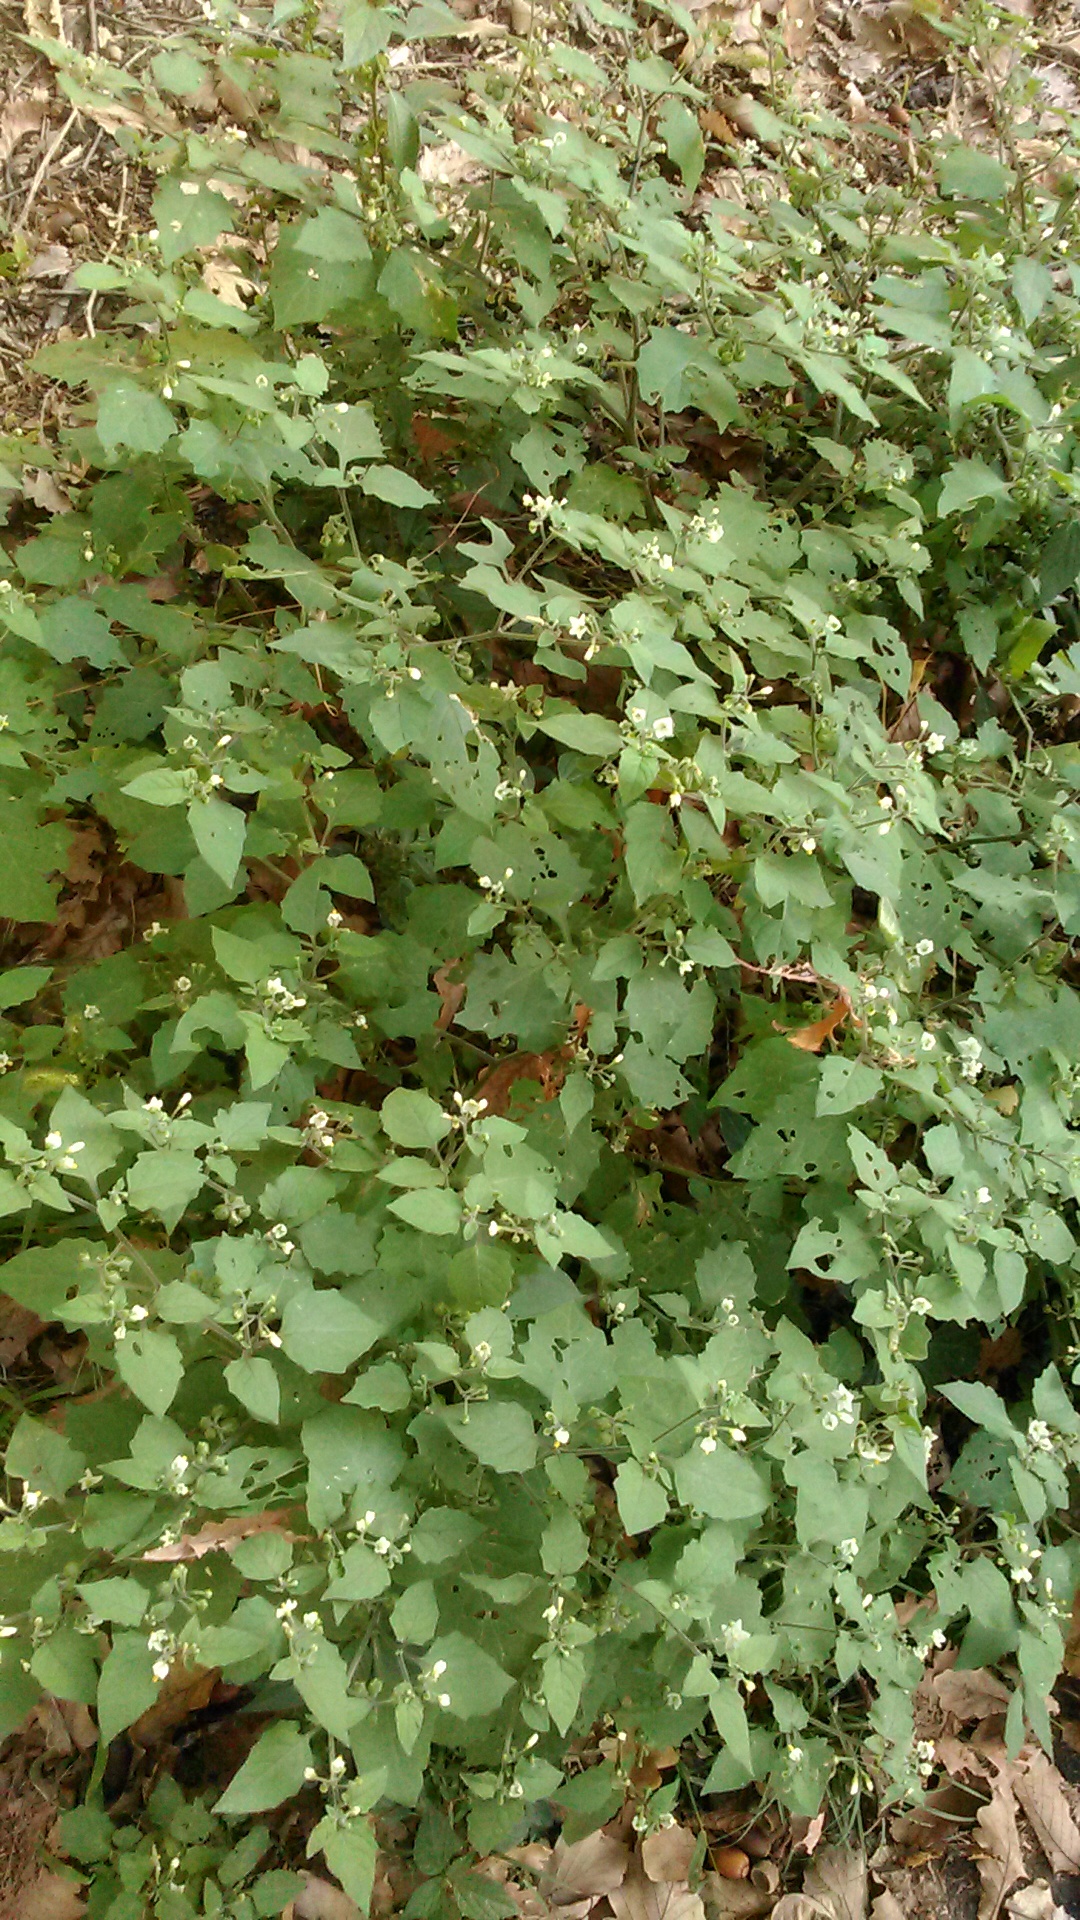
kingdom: Plantae
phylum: Tracheophyta
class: Magnoliopsida
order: Solanales
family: Solanaceae
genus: Solanum
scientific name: Solanum nigrum
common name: Black nightshade
